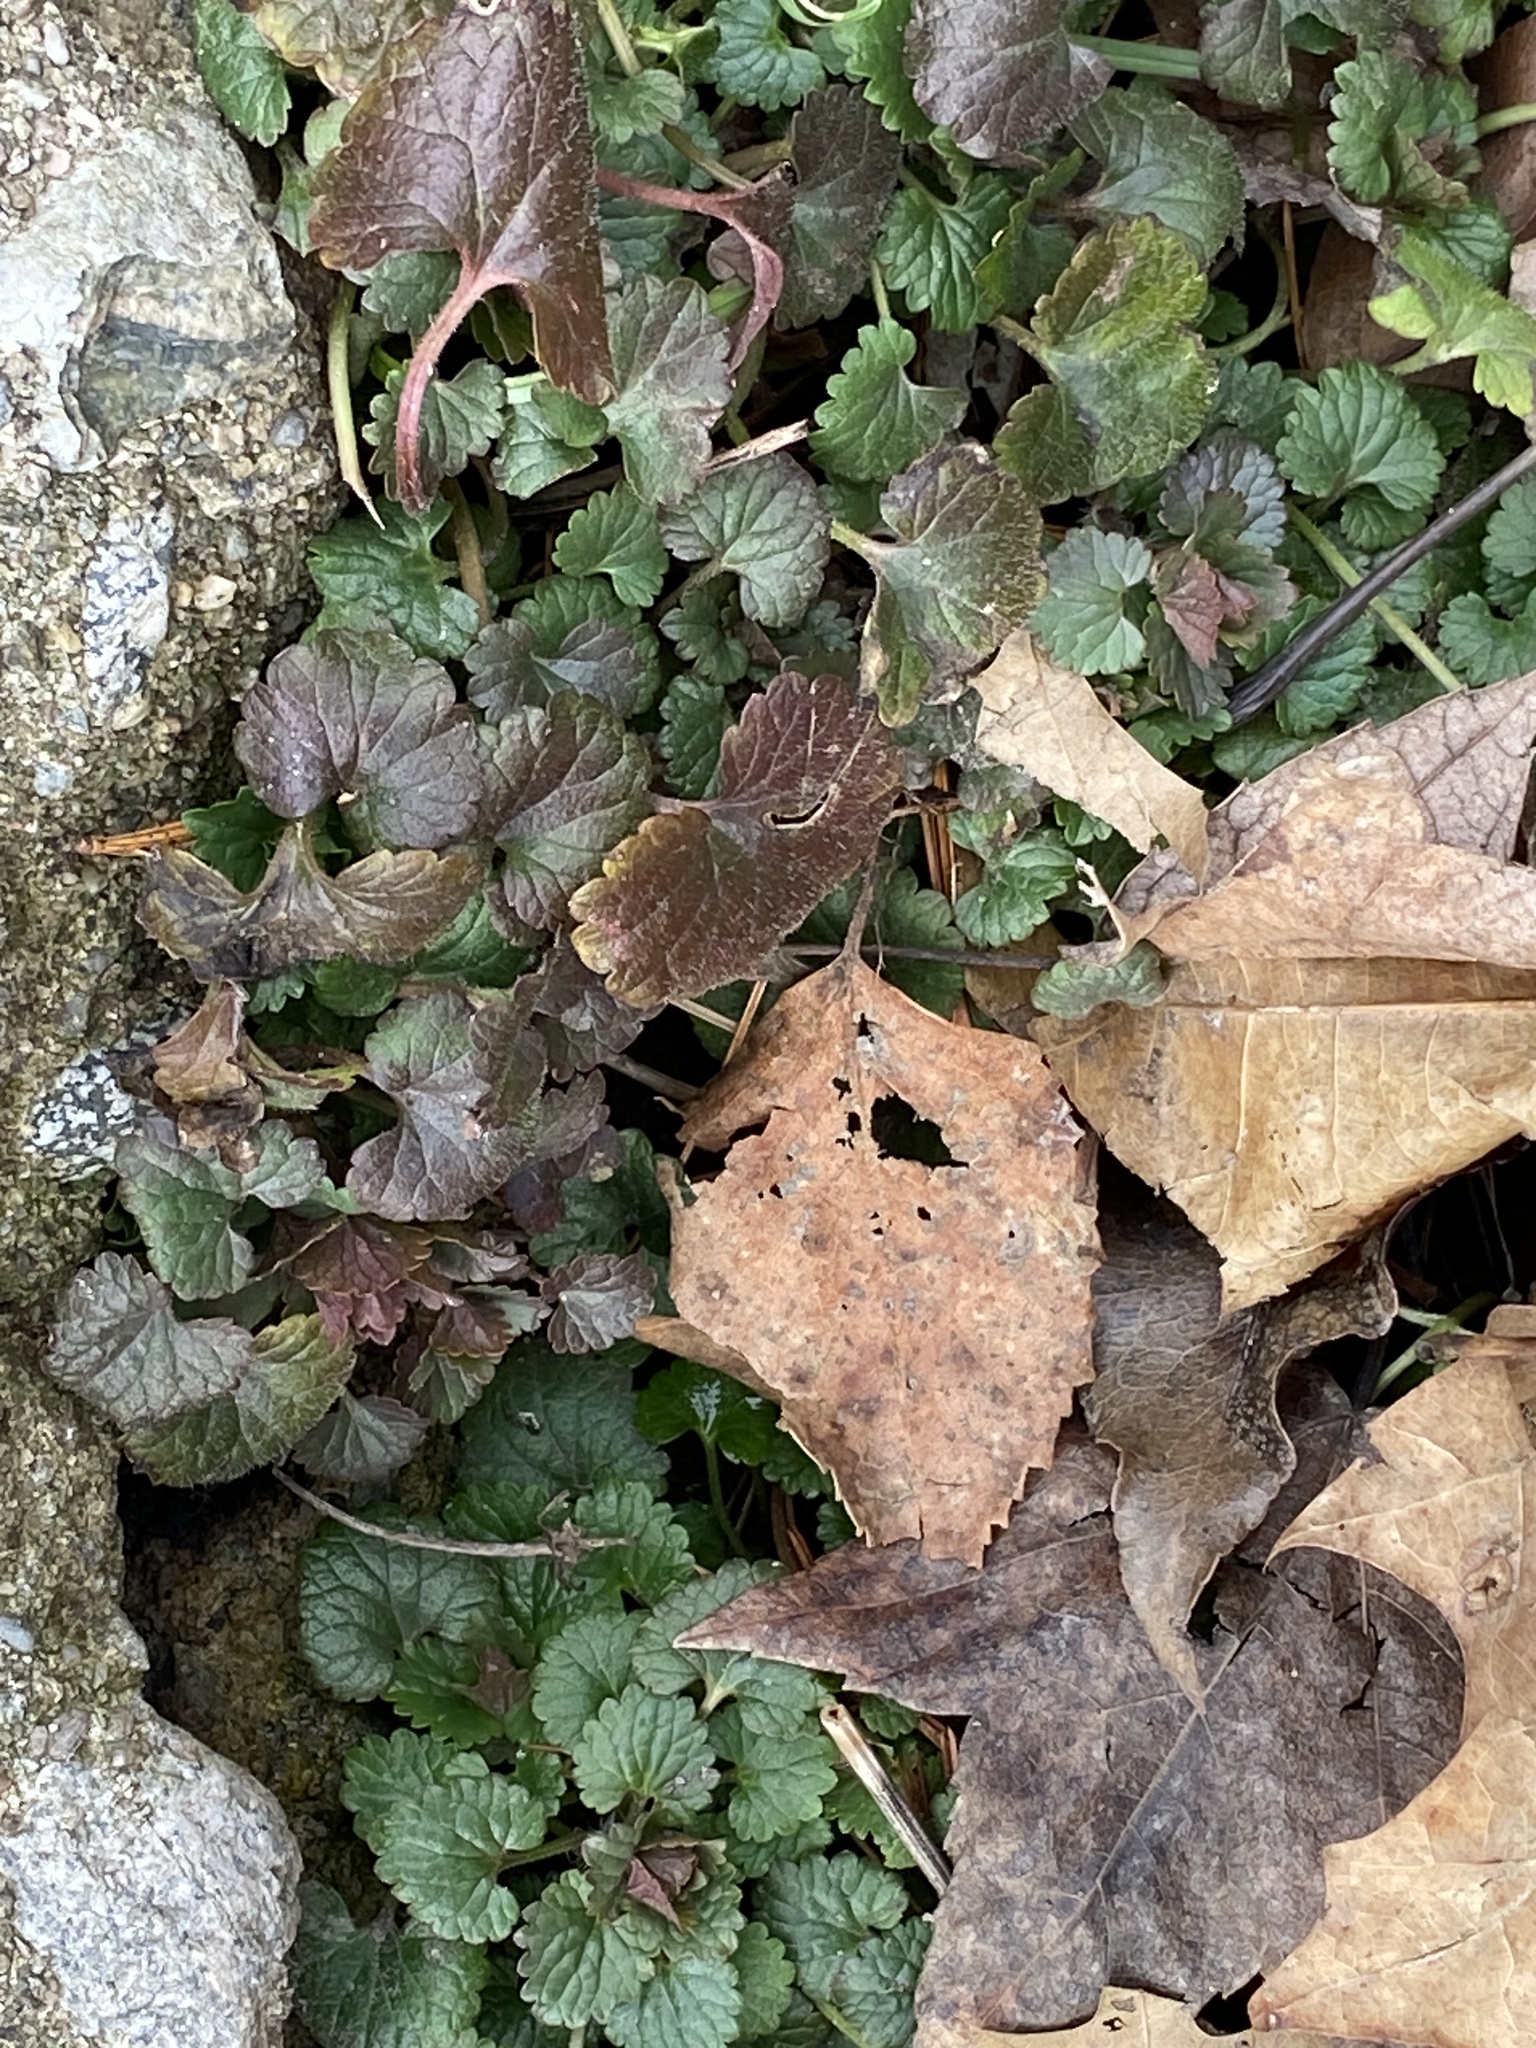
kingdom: Plantae
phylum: Tracheophyta
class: Magnoliopsida
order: Lamiales
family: Lamiaceae
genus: Glechoma
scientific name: Glechoma hederacea
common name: Ground ivy
